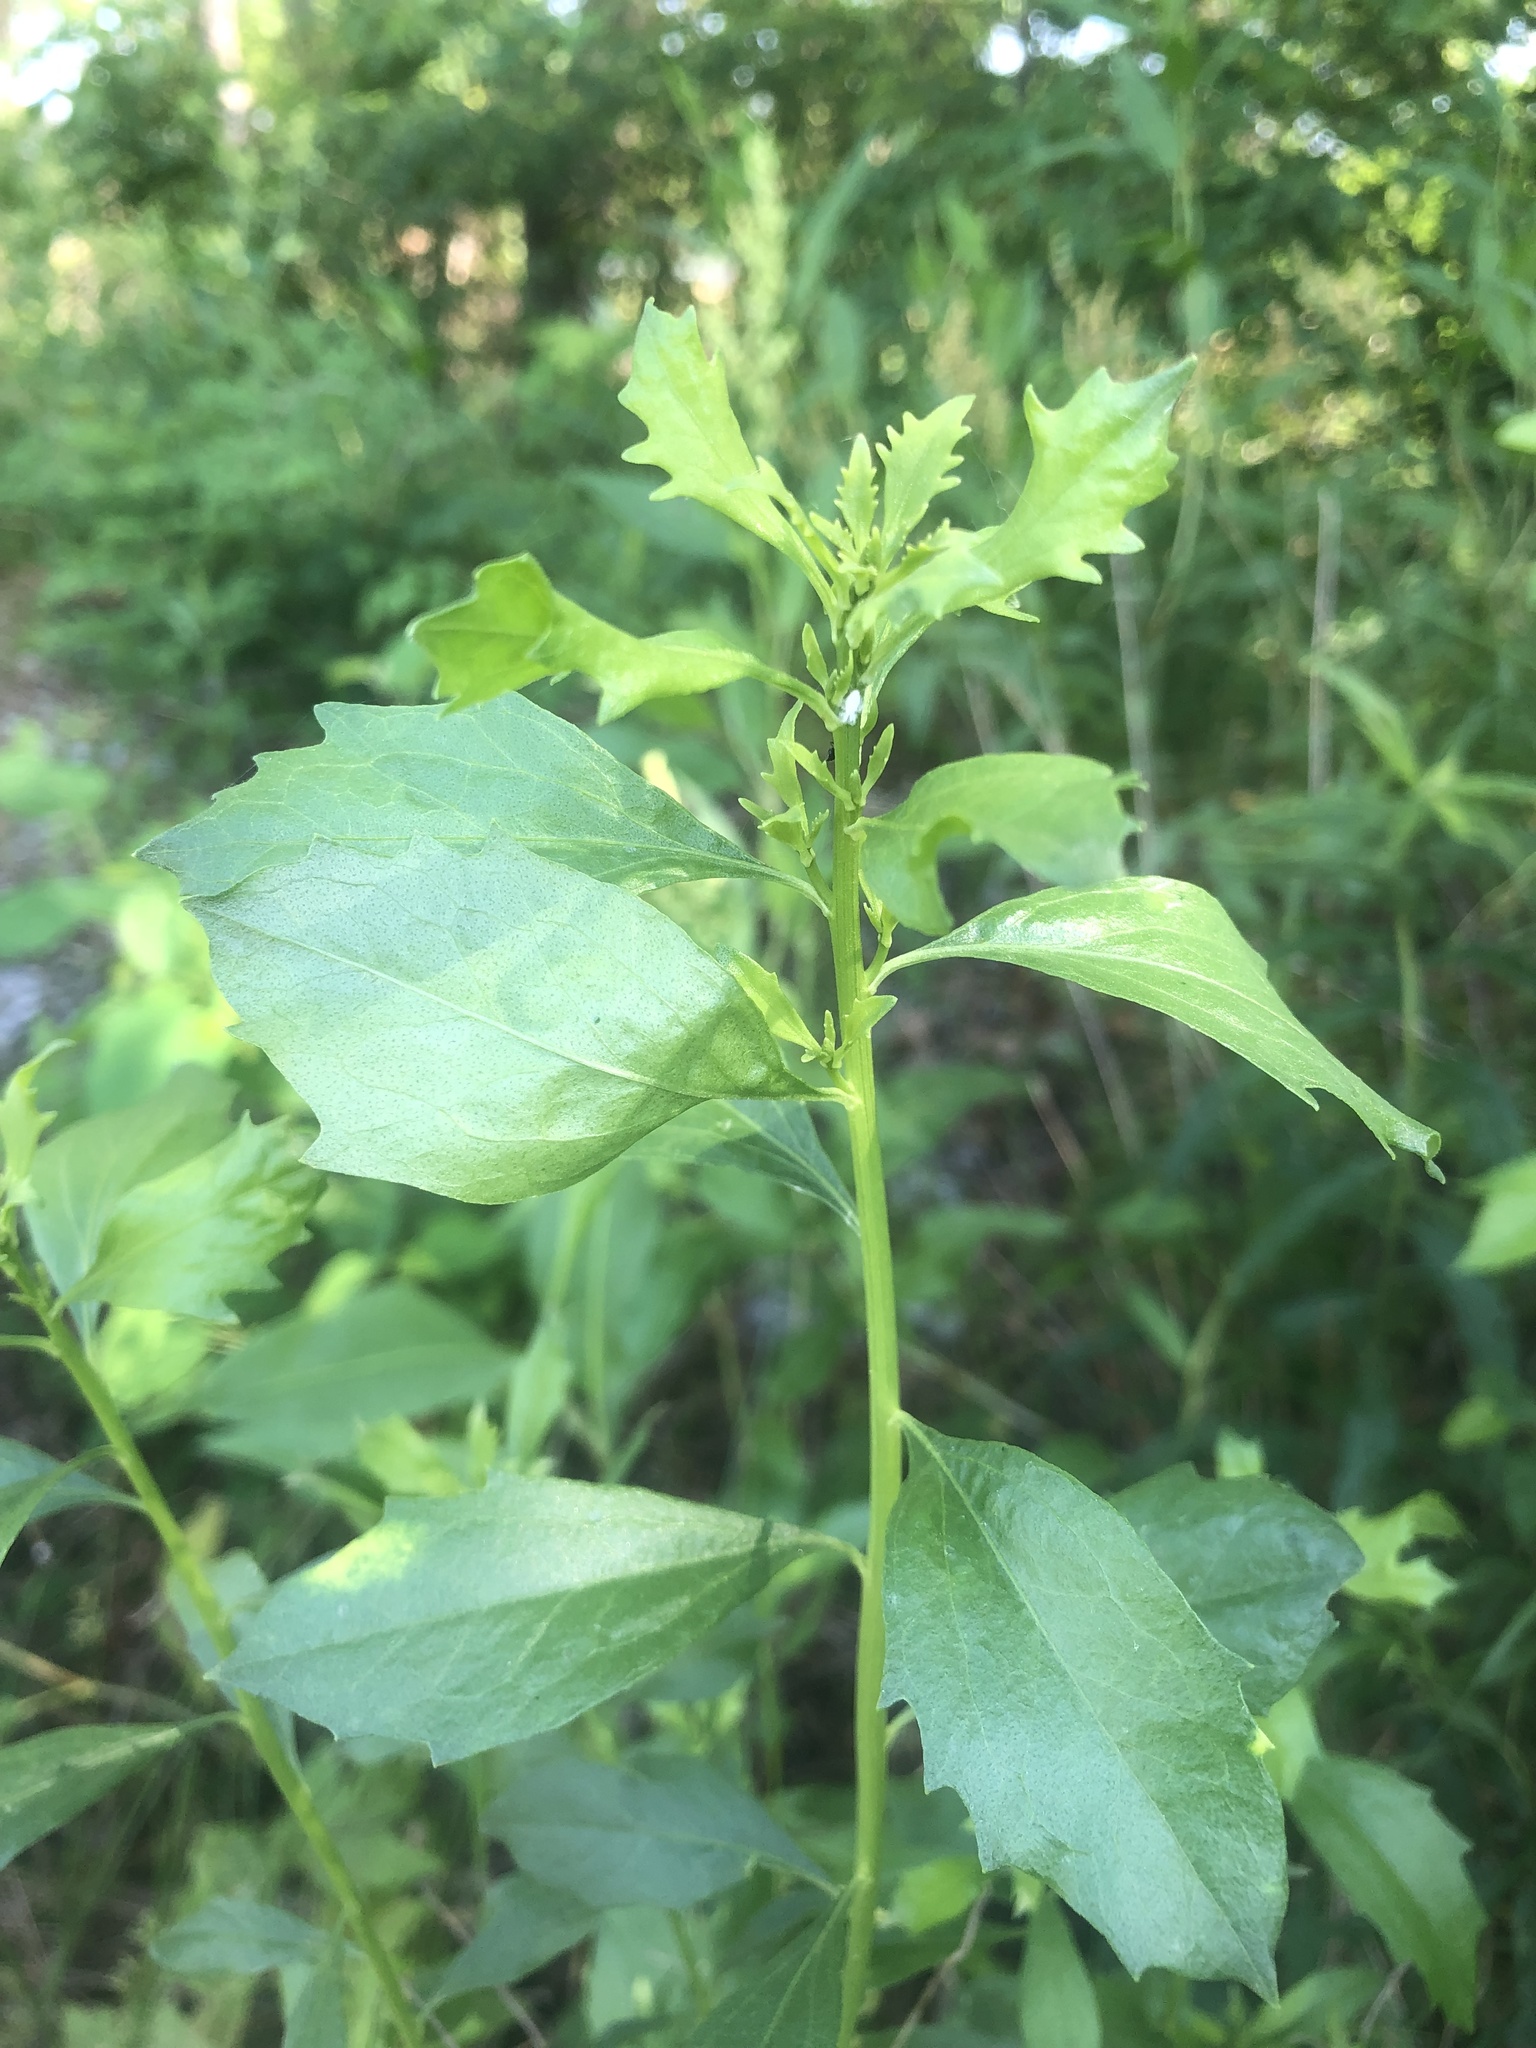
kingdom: Plantae
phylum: Tracheophyta
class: Magnoliopsida
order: Asterales
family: Asteraceae
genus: Baccharis
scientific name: Baccharis halimifolia
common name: Eastern baccharis
